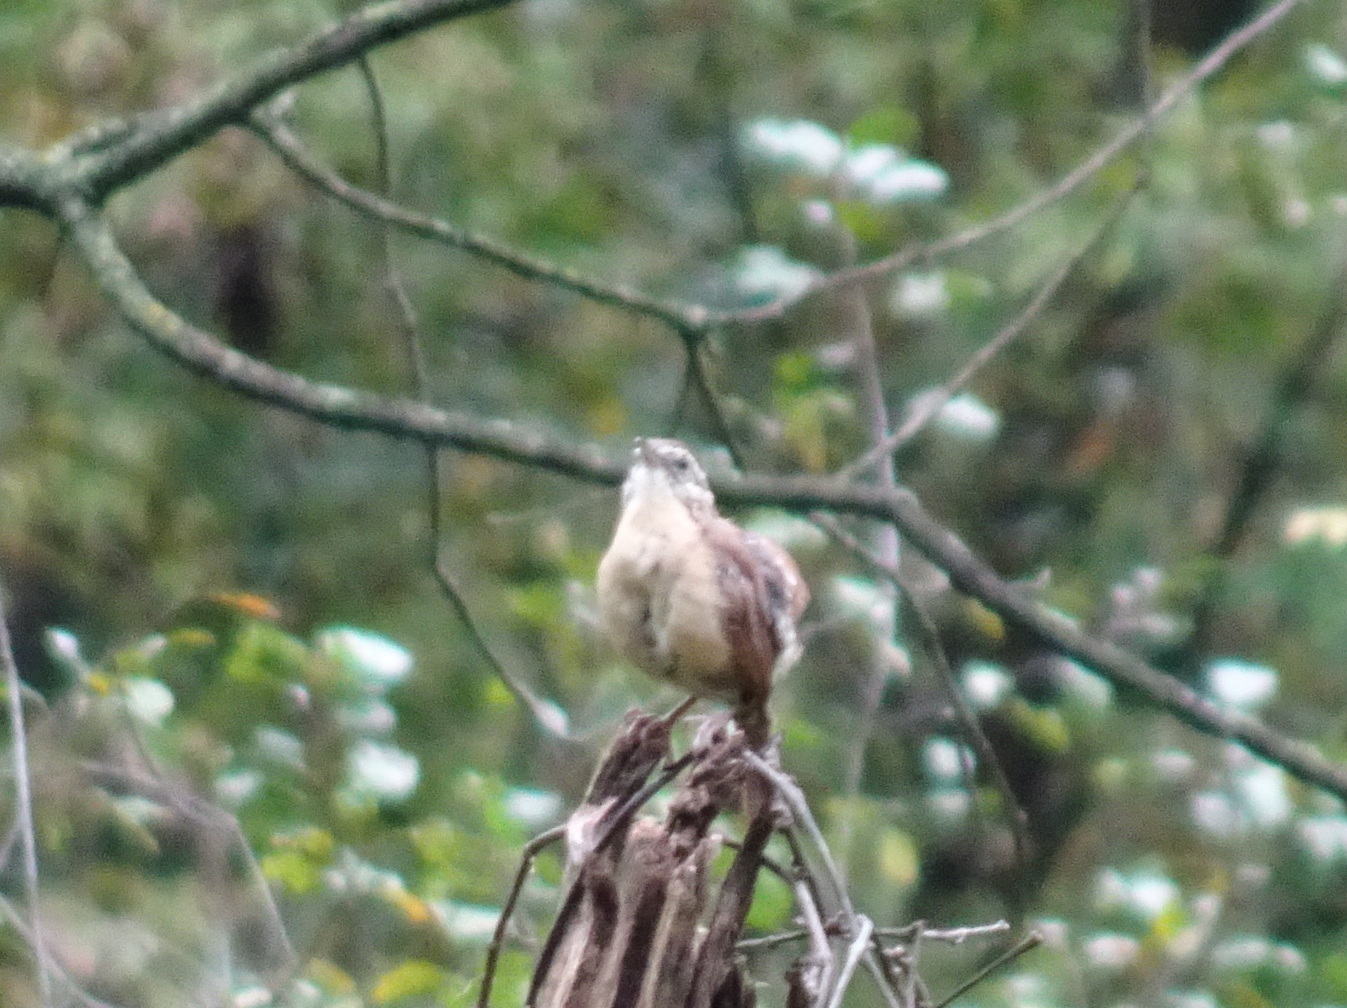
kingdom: Animalia
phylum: Chordata
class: Aves
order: Passeriformes
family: Troglodytidae
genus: Thryothorus
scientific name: Thryothorus ludovicianus
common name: Carolina wren
